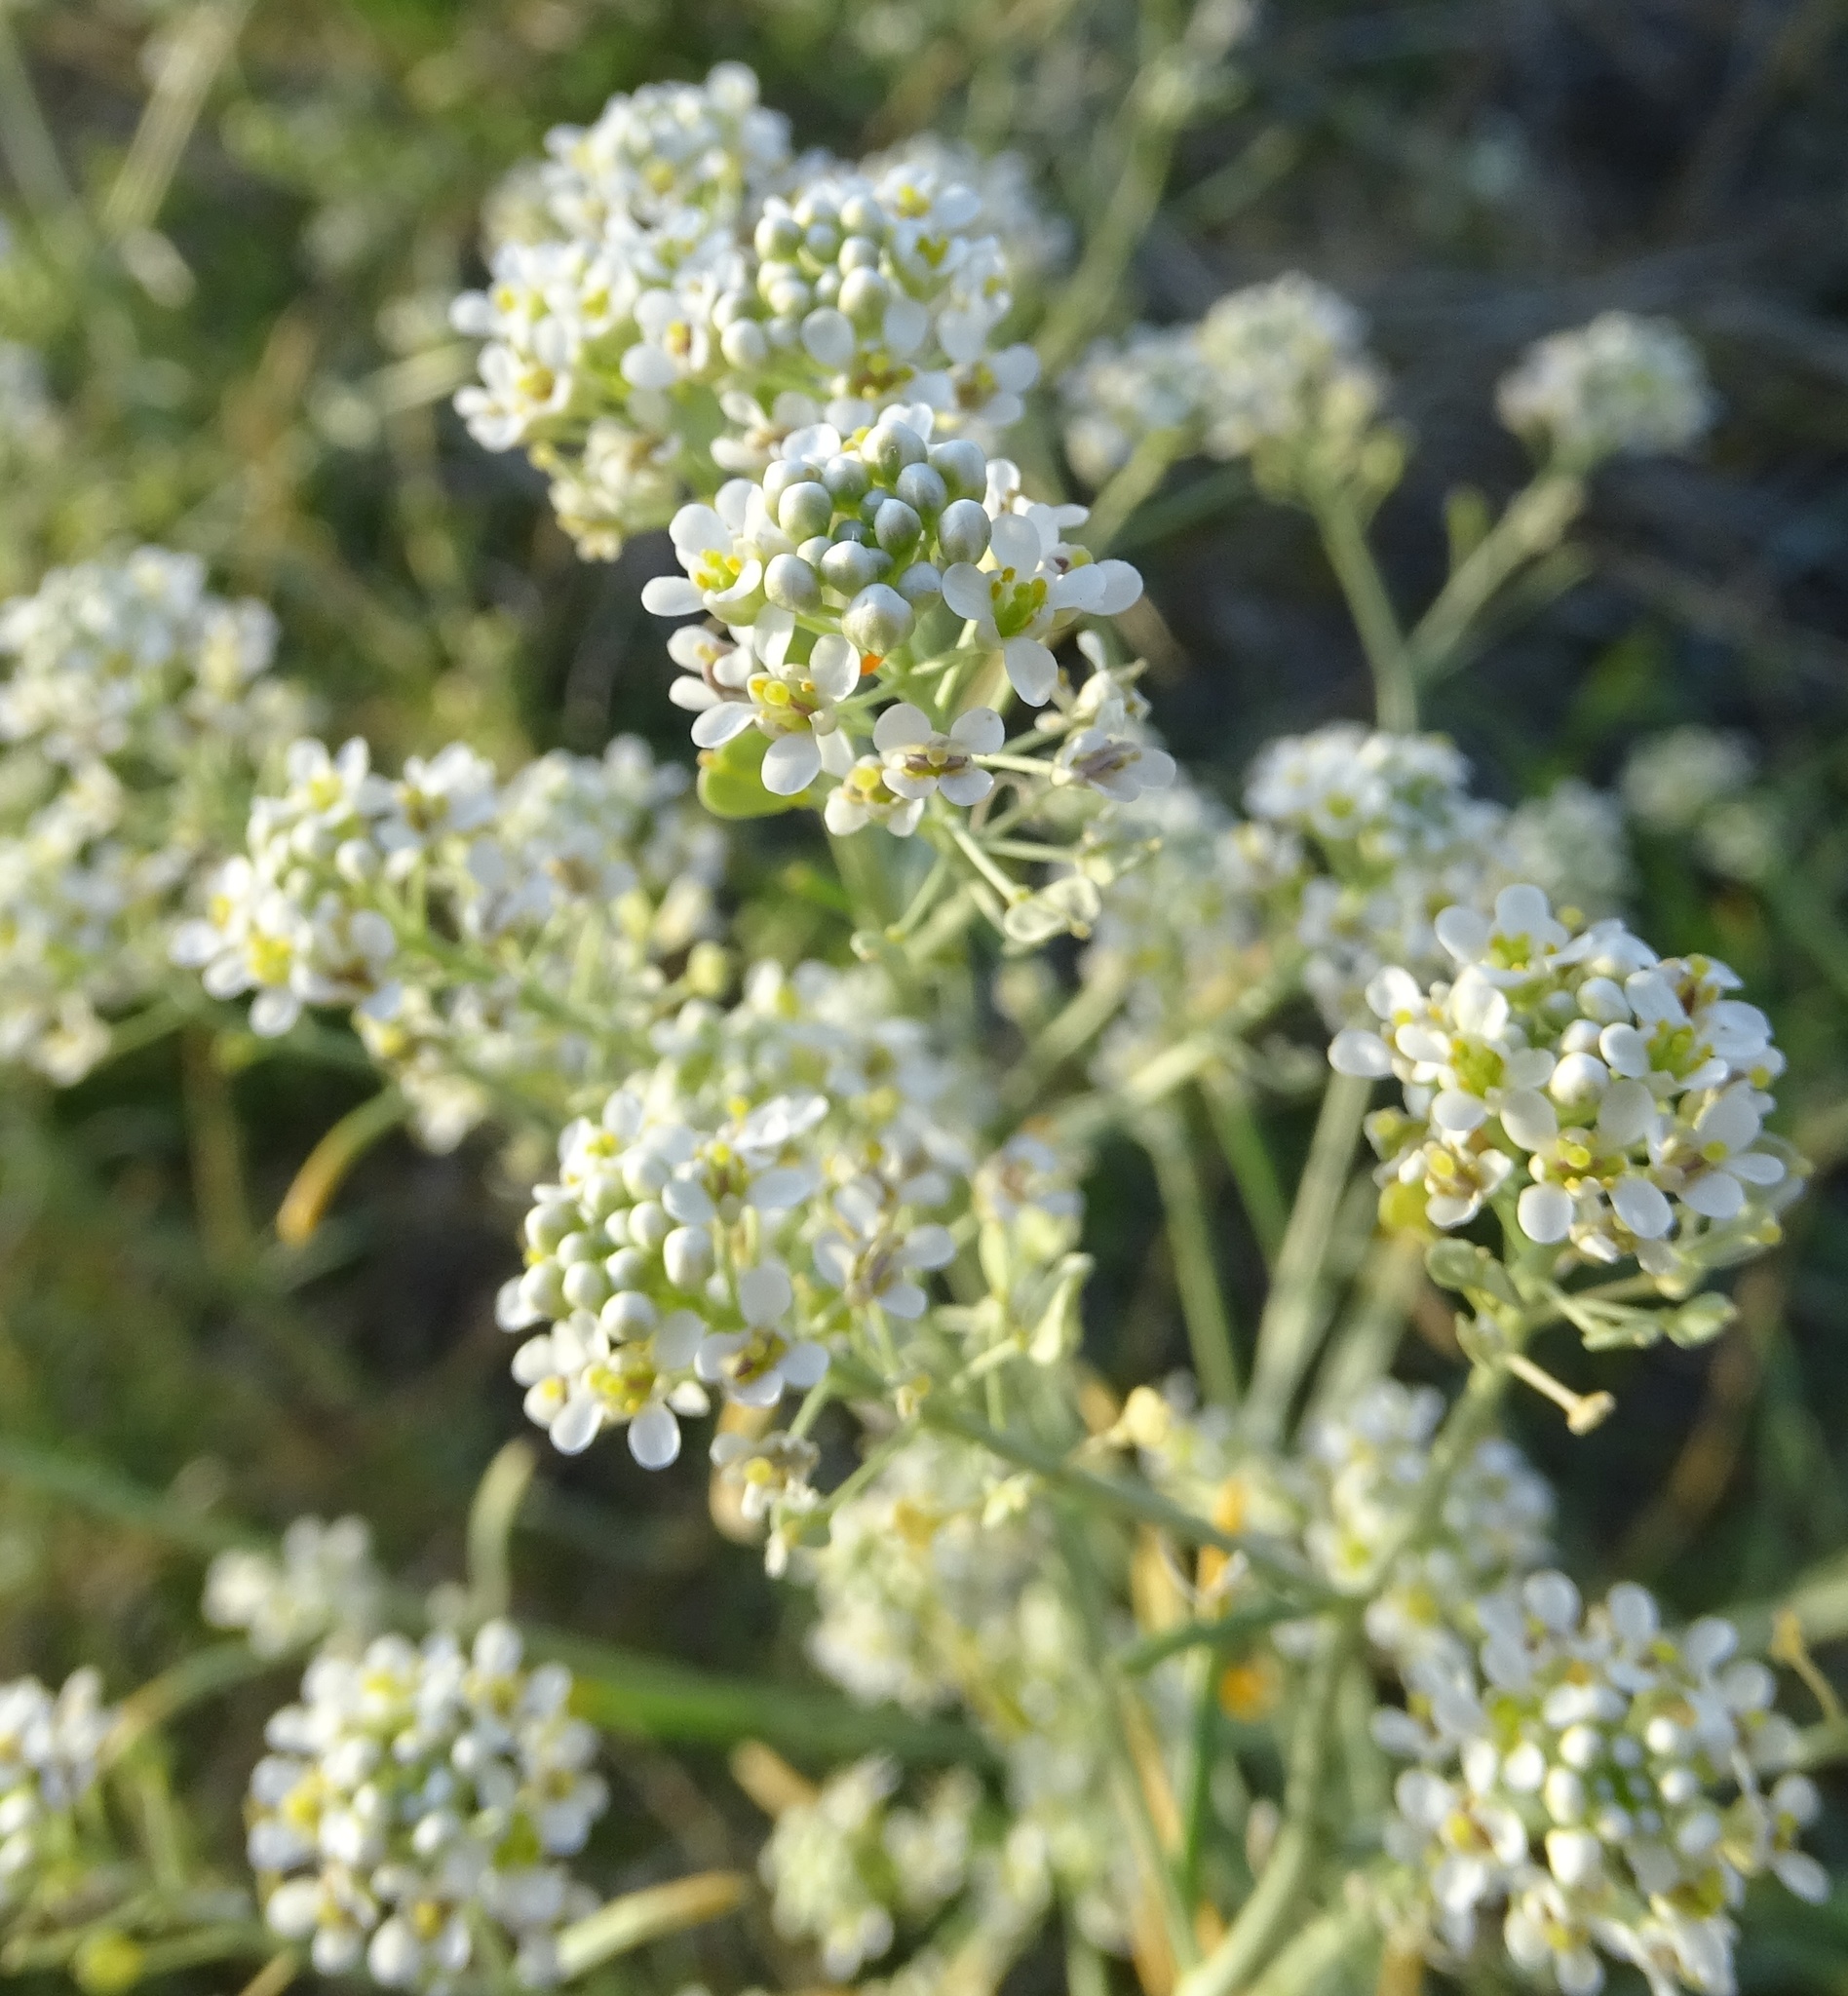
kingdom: Plantae
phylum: Tracheophyta
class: Magnoliopsida
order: Brassicales
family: Brassicaceae
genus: Lepidium
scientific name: Lepidium fremontii
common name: Fremont's pepperwort
